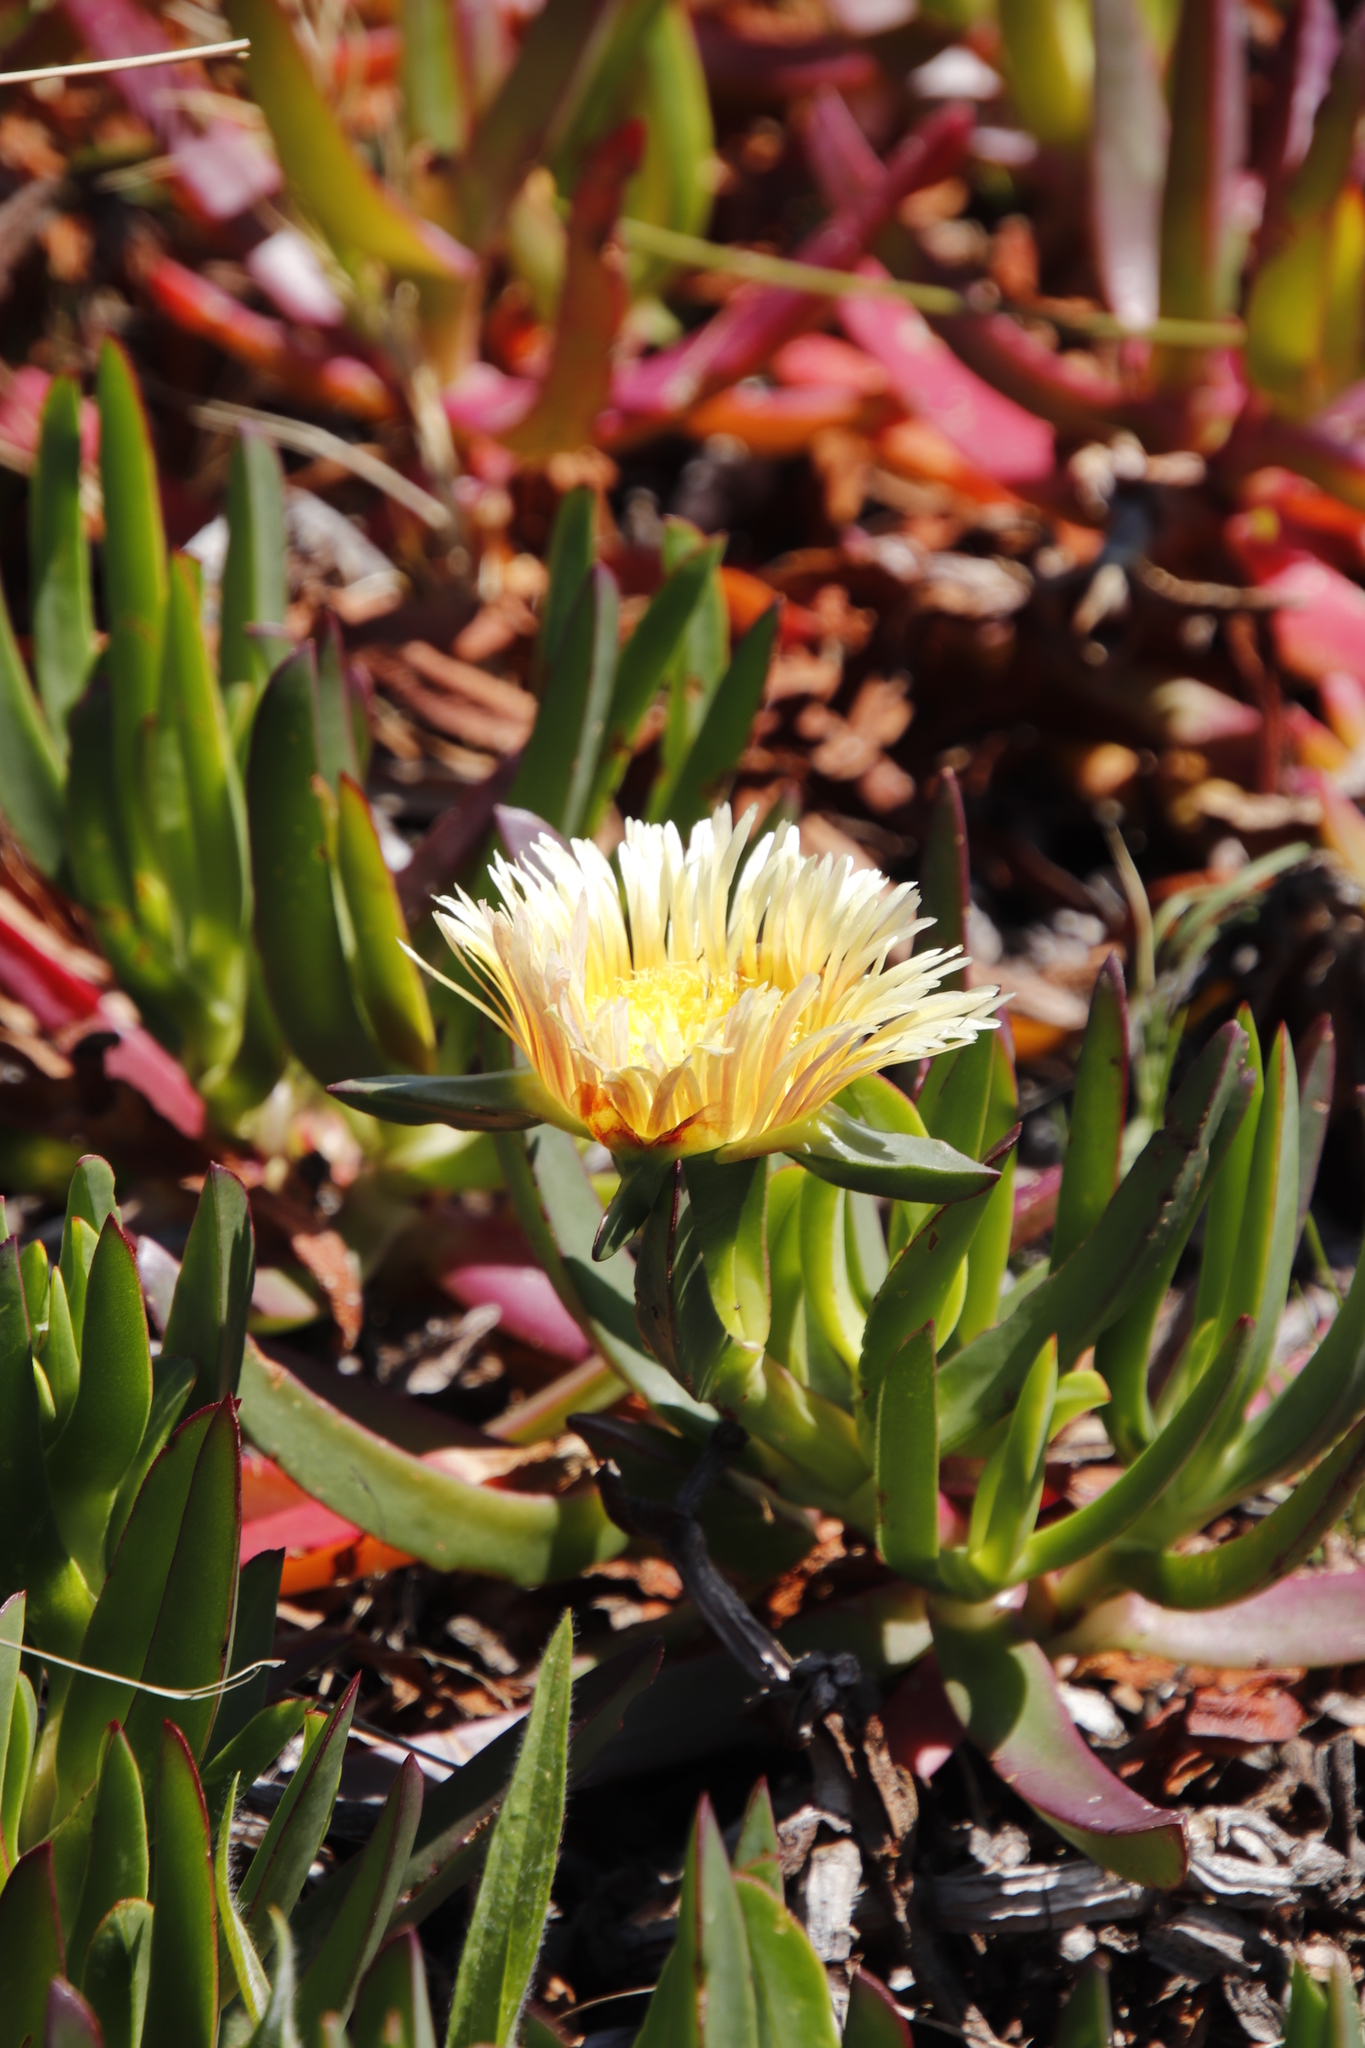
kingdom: Plantae
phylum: Tracheophyta
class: Magnoliopsida
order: Caryophyllales
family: Aizoaceae
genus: Carpobrotus
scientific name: Carpobrotus edulis
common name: Hottentot-fig
